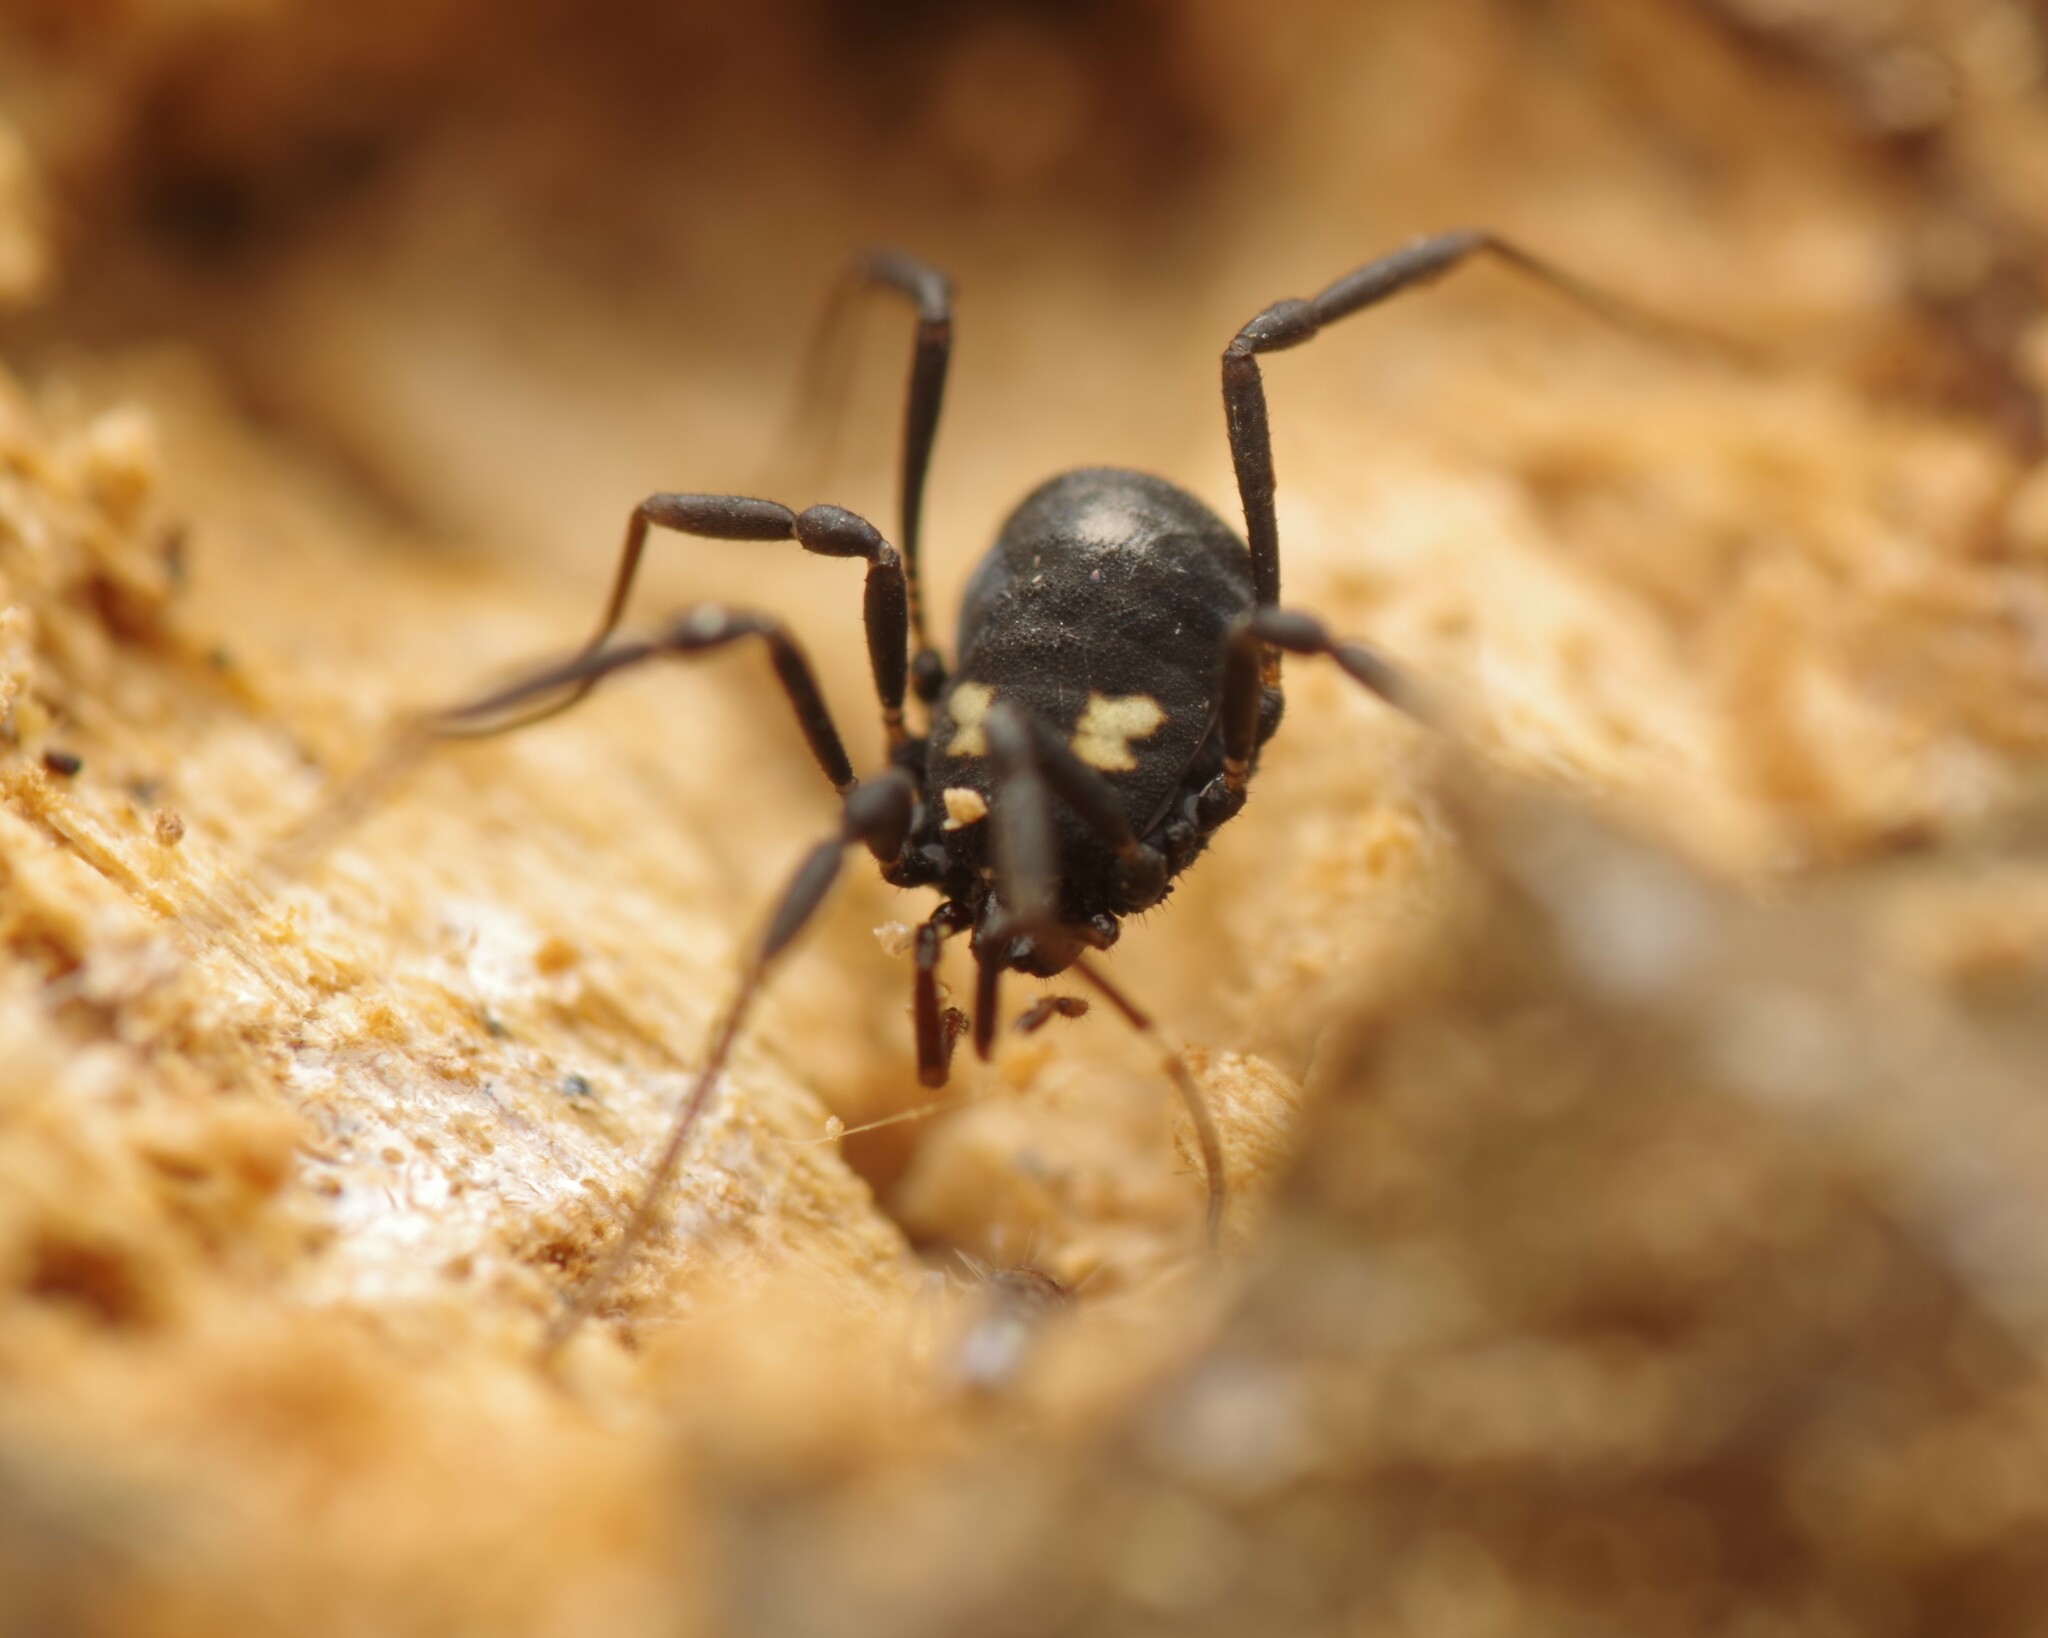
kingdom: Animalia
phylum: Arthropoda
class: Arachnida
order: Opiliones
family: Nemastomatidae
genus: Nemastoma
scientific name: Nemastoma bimaculatum
